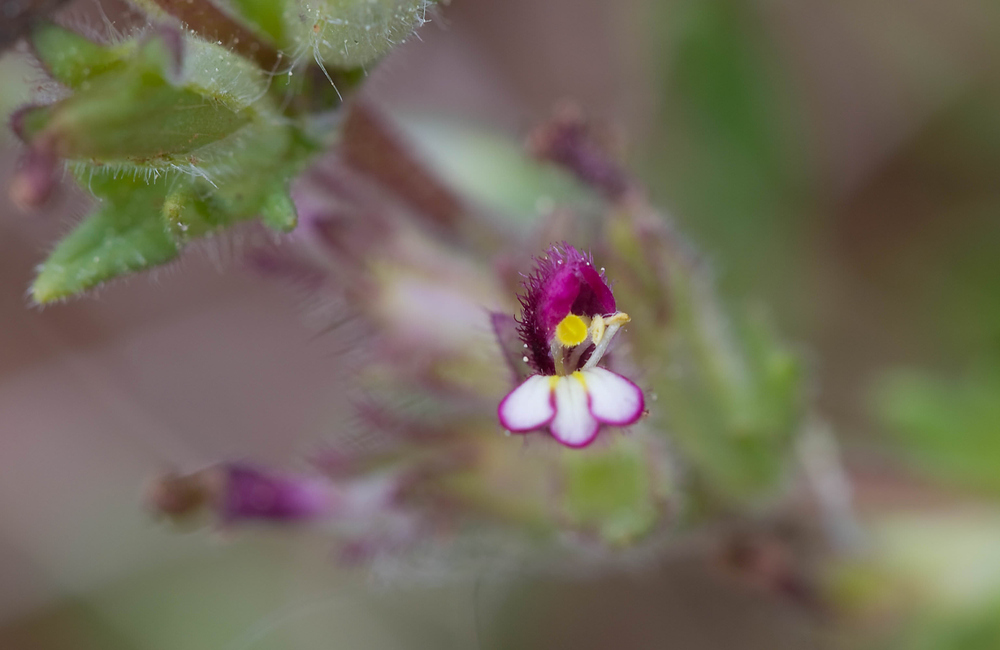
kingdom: Plantae
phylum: Tracheophyta
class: Magnoliopsida
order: Lamiales
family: Orobanchaceae
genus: Parentucellia
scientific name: Parentucellia latifolia
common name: Broadleaf glandweed
